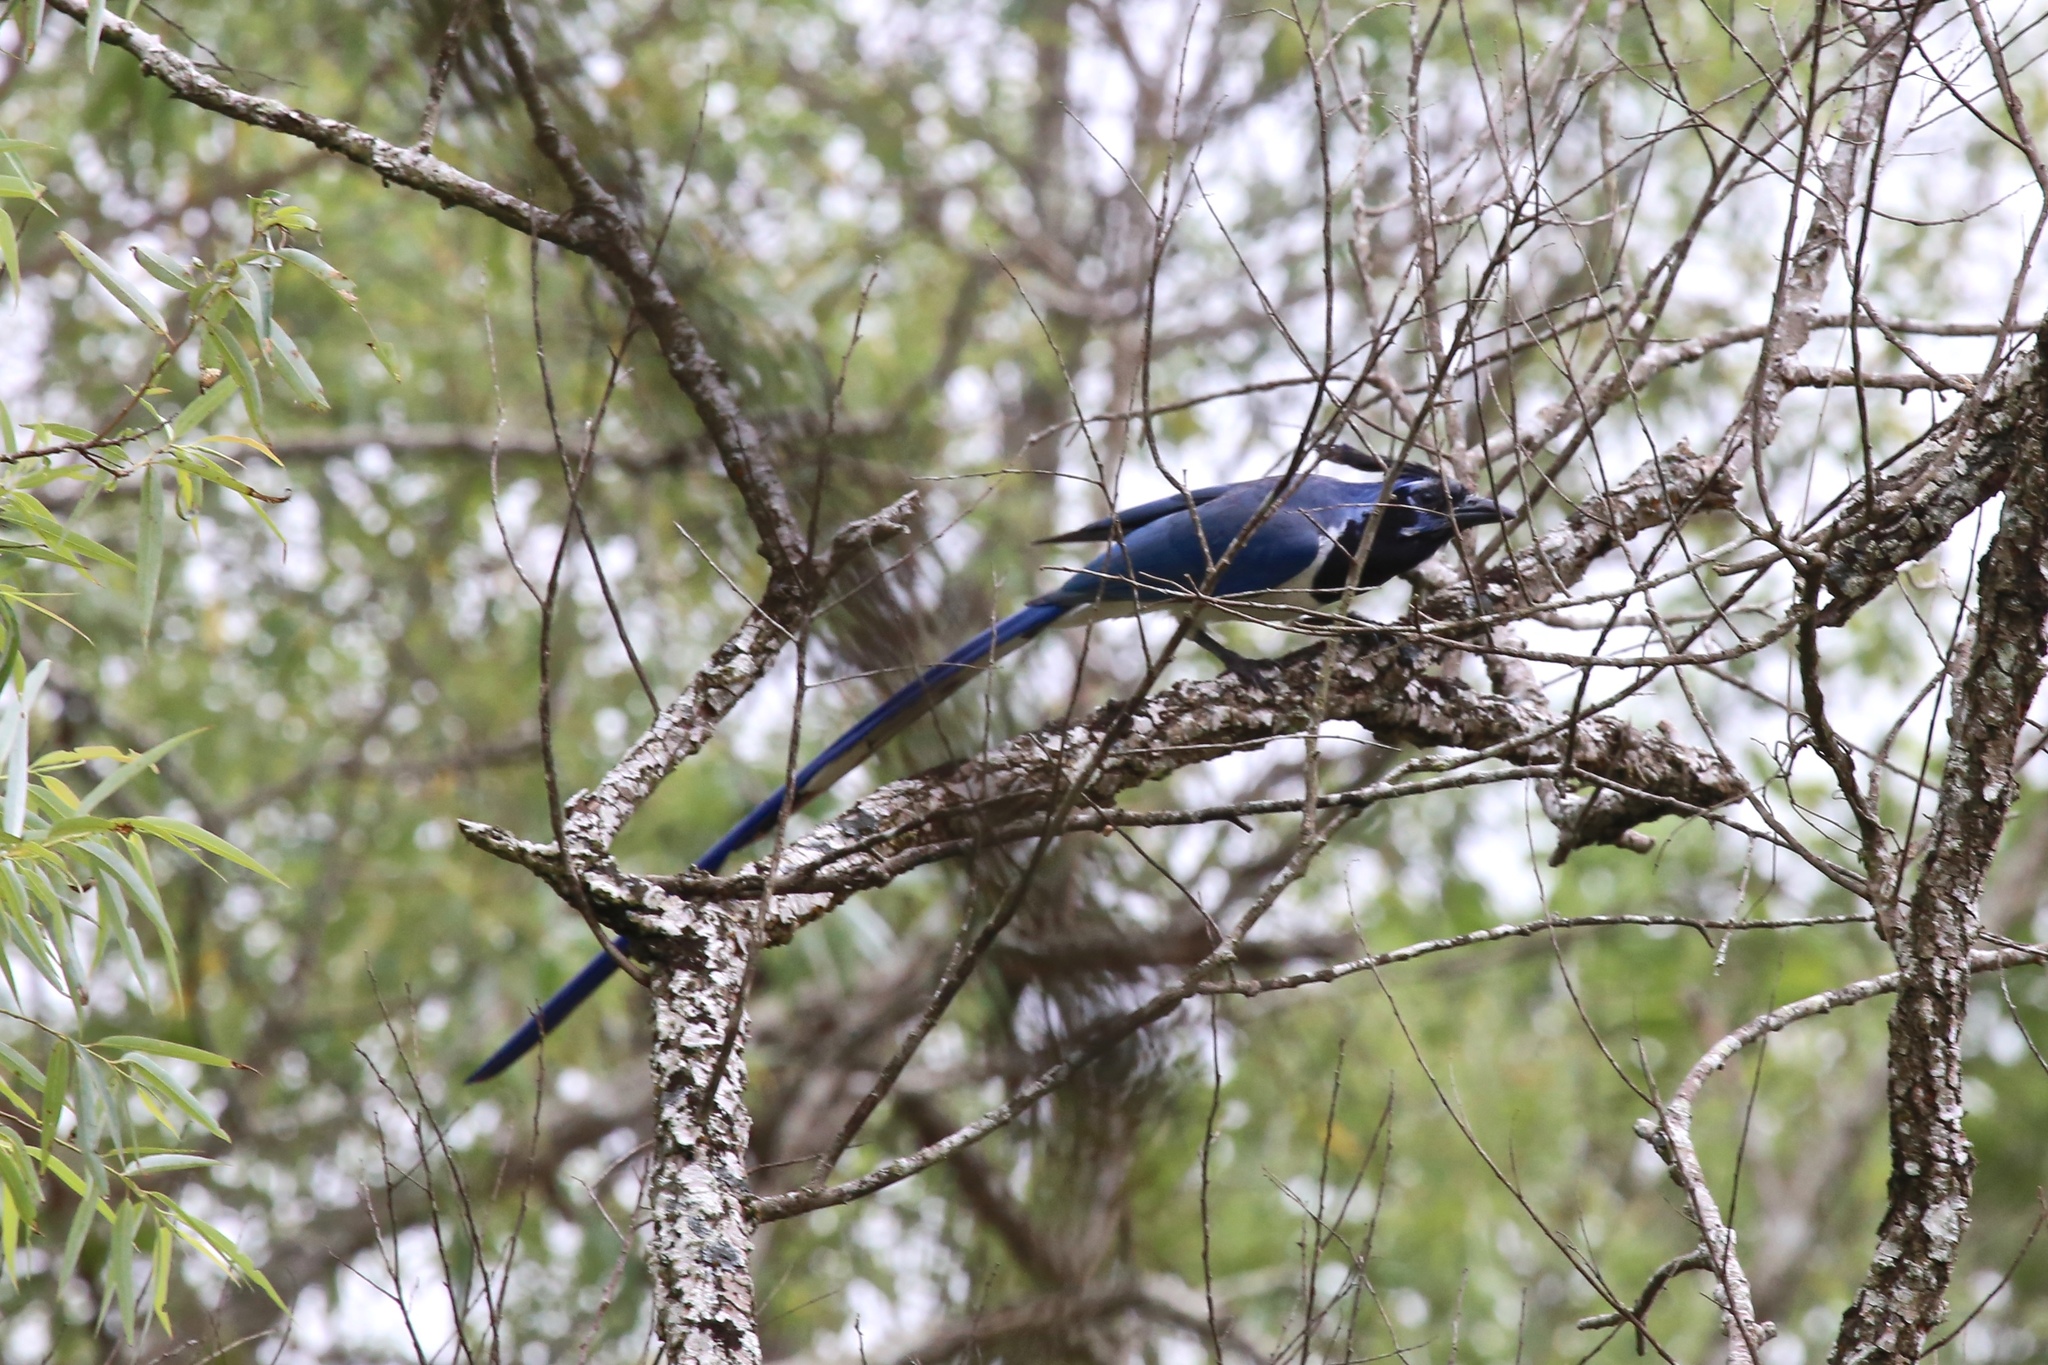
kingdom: Animalia
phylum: Chordata
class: Aves
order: Passeriformes
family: Corvidae
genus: Calocitta
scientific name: Calocitta colliei
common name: Black-throated magpie-jay
